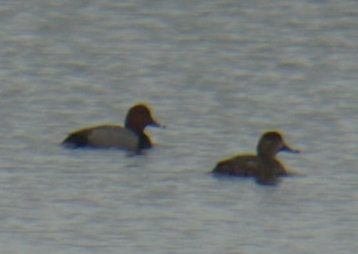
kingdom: Animalia
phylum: Chordata
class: Aves
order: Anseriformes
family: Anatidae
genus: Aythya
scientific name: Aythya americana
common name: Redhead
